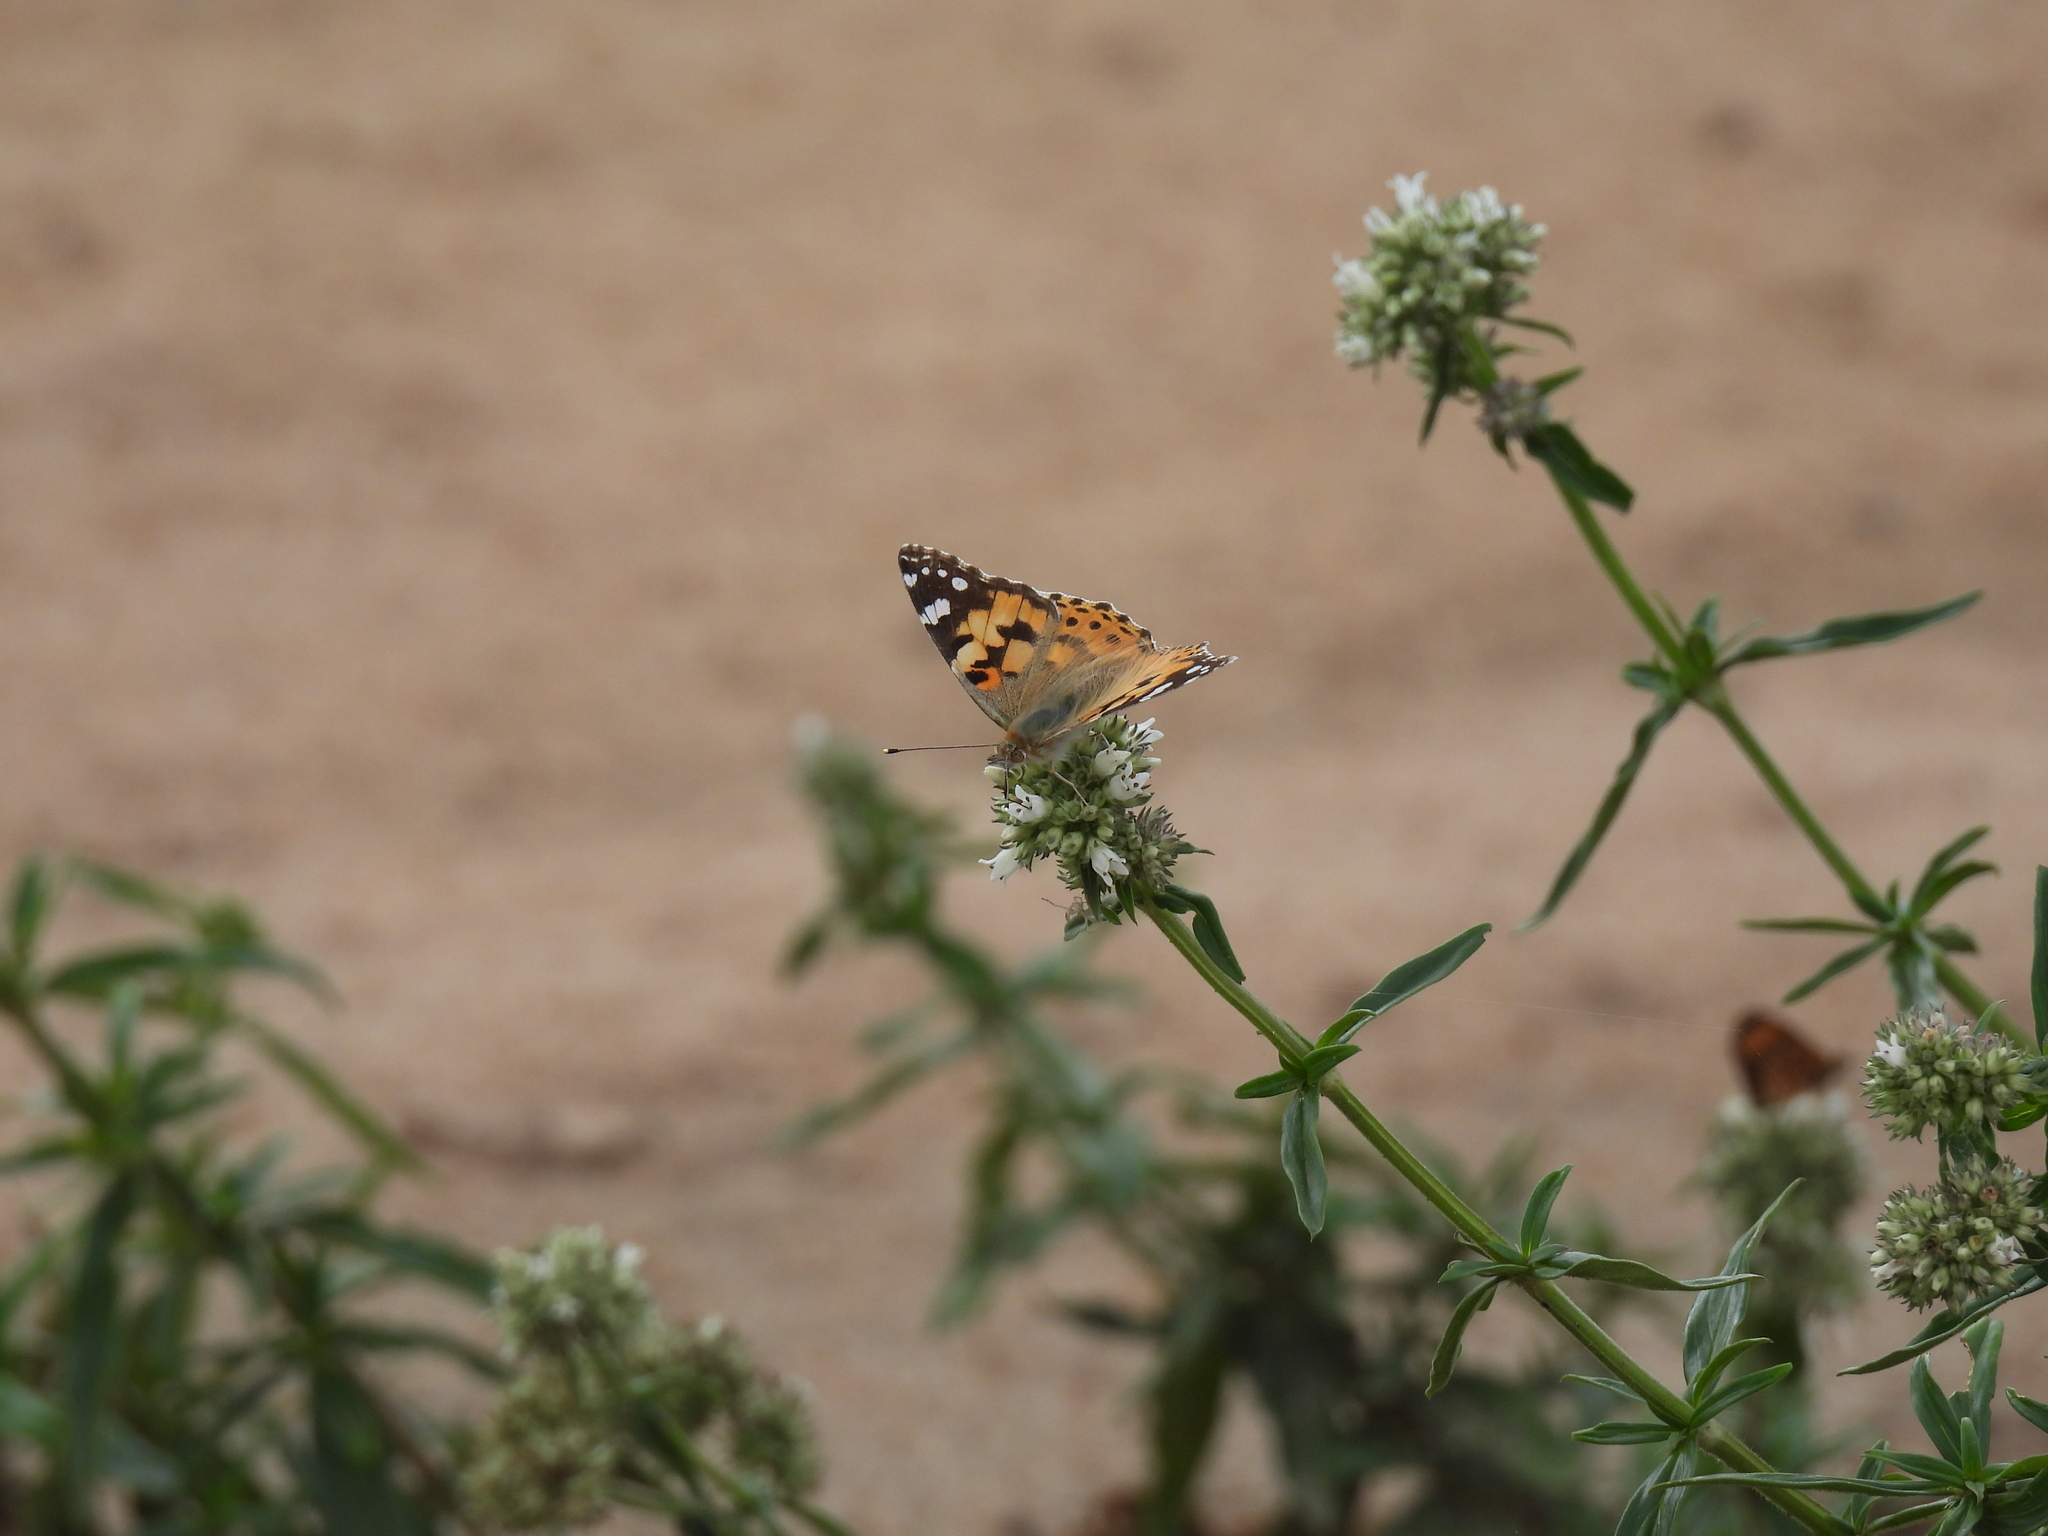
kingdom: Animalia
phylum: Arthropoda
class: Insecta
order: Lepidoptera
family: Nymphalidae
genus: Vanessa
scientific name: Vanessa cardui
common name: Painted lady
